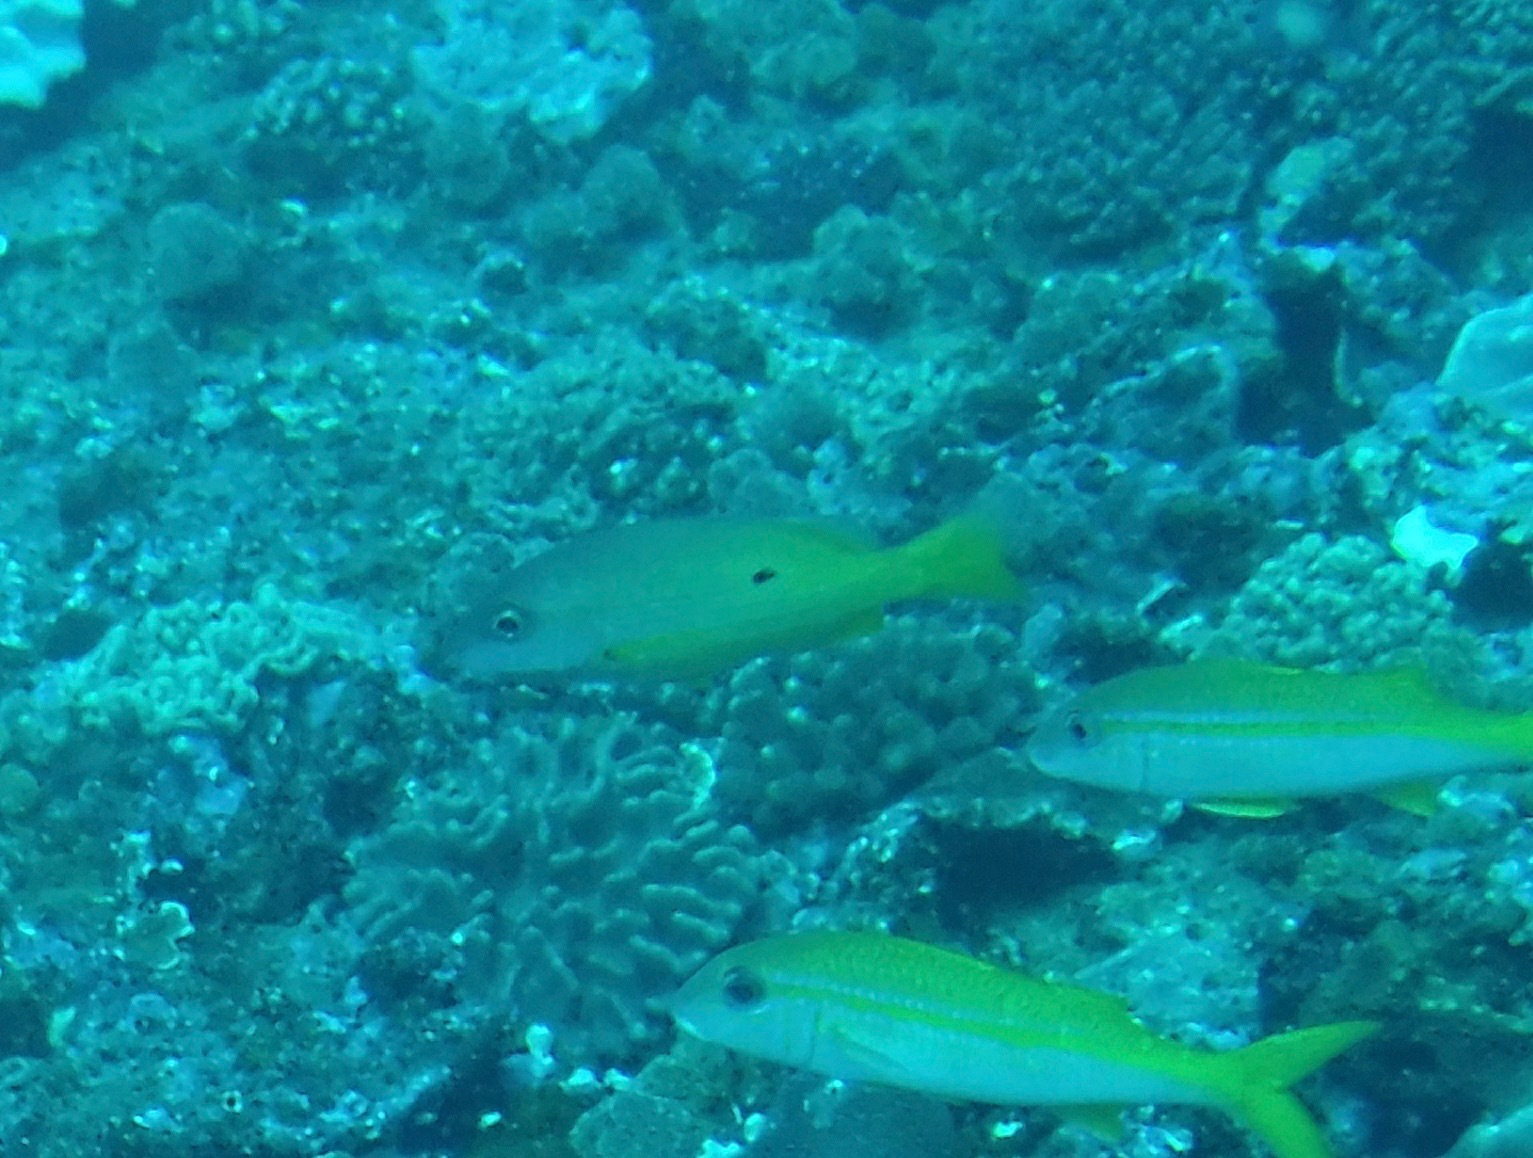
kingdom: Animalia
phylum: Chordata
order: Perciformes
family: Lutjanidae
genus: Lutjanus
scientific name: Lutjanus fulviflamma
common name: Blackspot snapper
